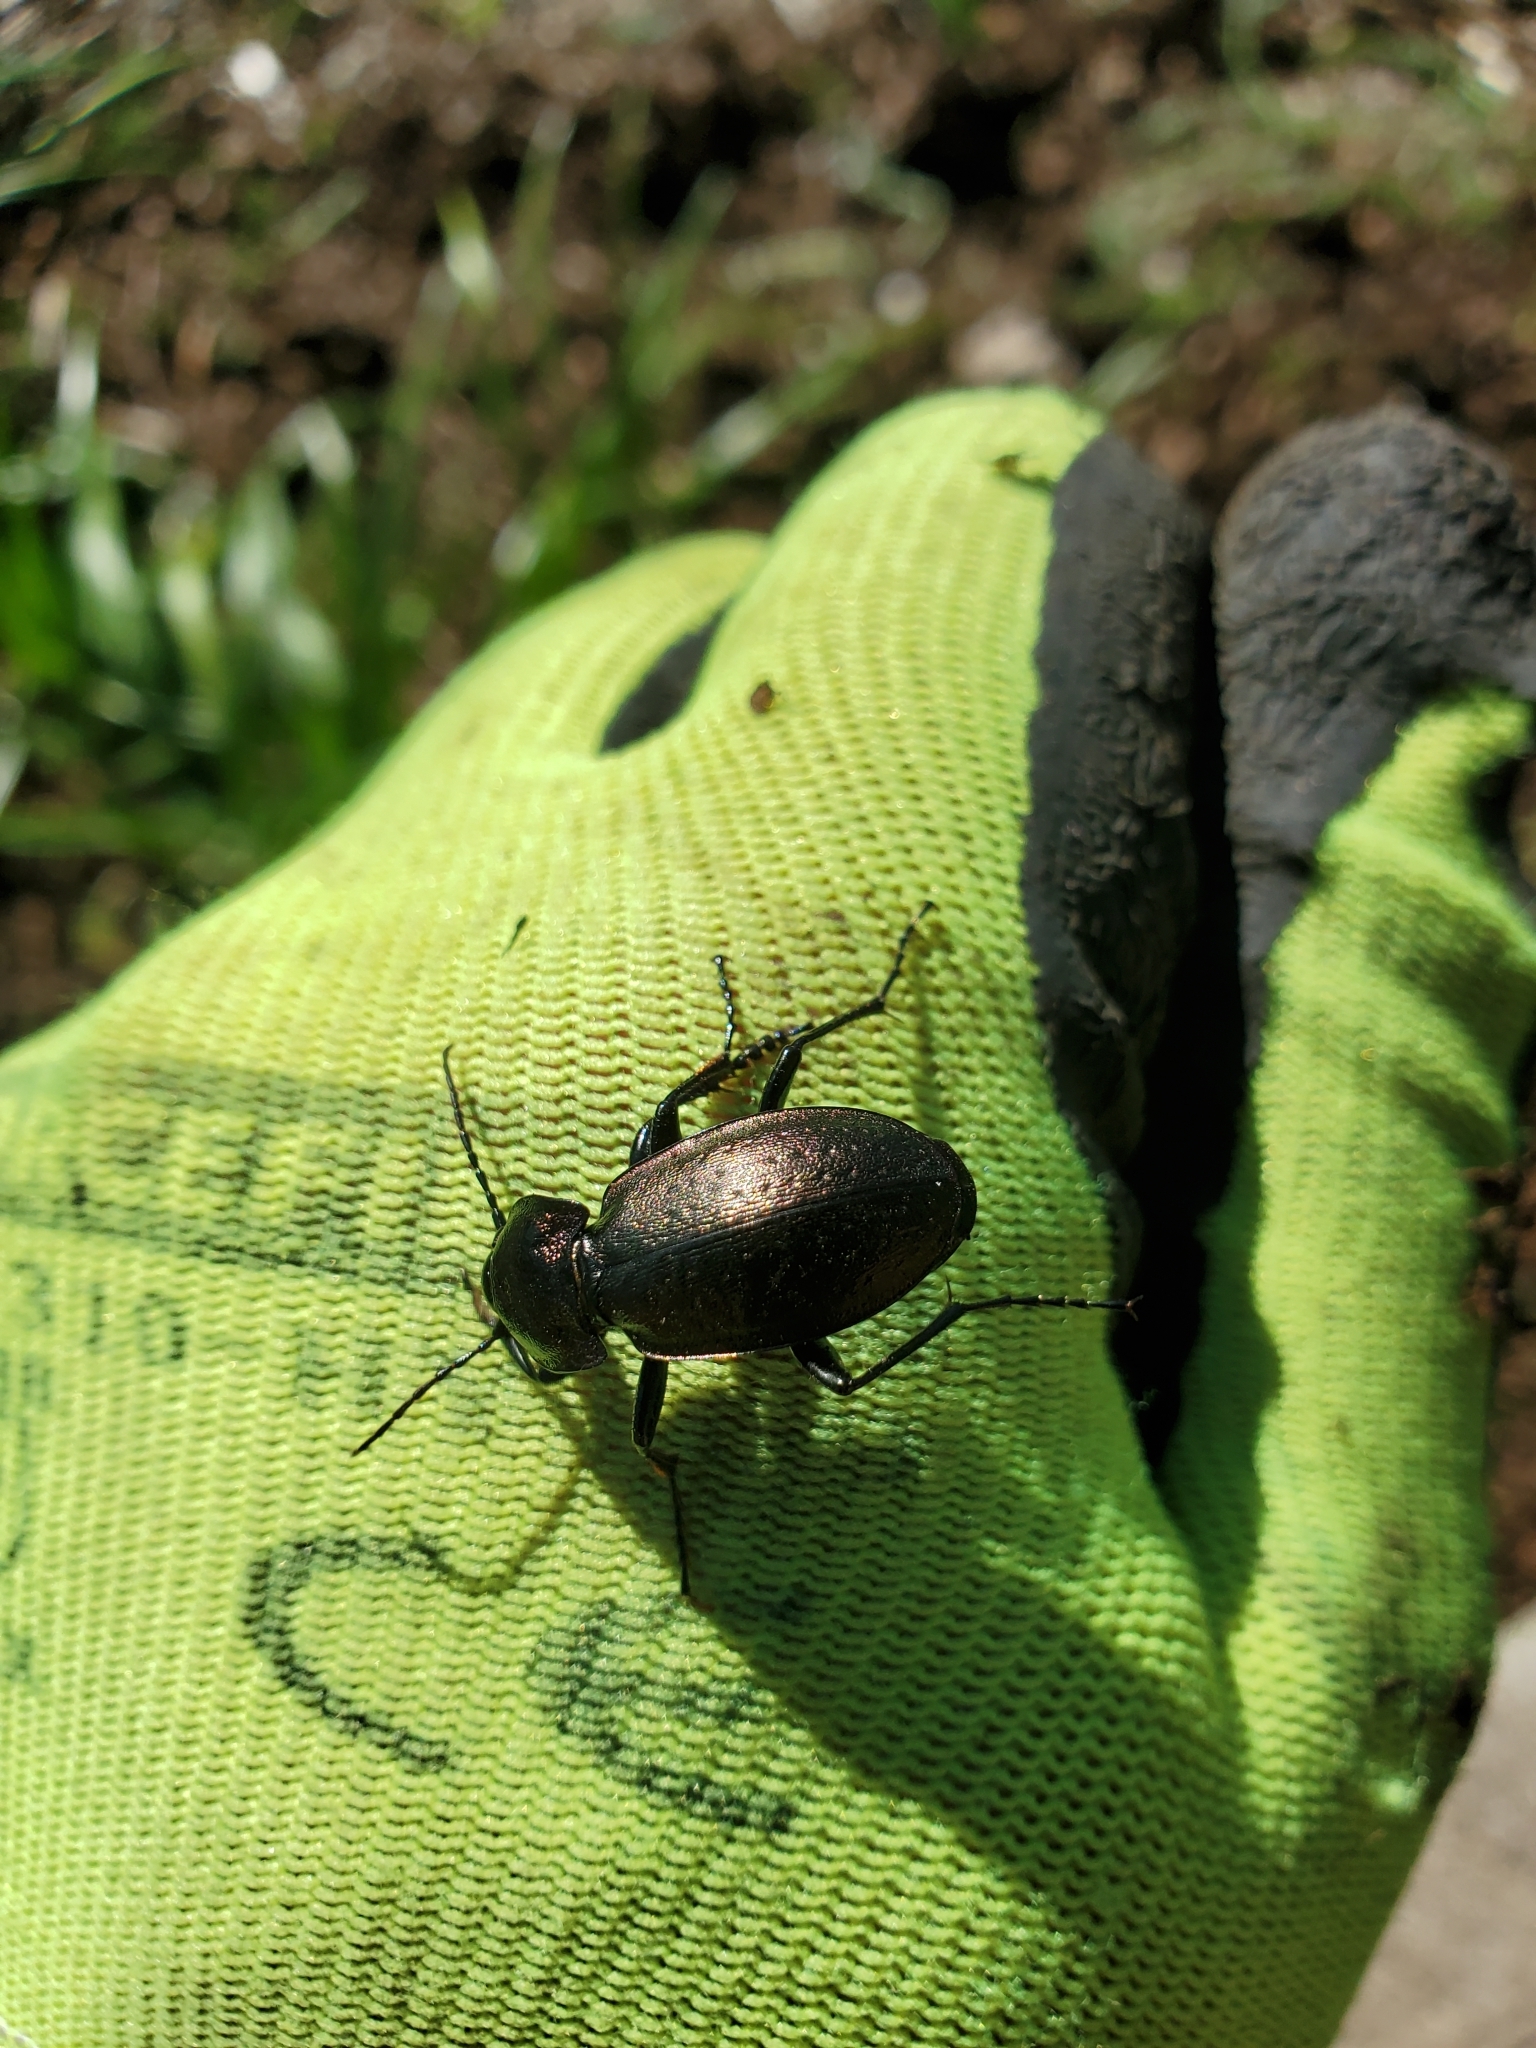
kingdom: Animalia
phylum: Arthropoda
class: Insecta
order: Coleoptera
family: Carabidae
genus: Carabus
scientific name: Carabus nemoralis
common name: European ground beetle
